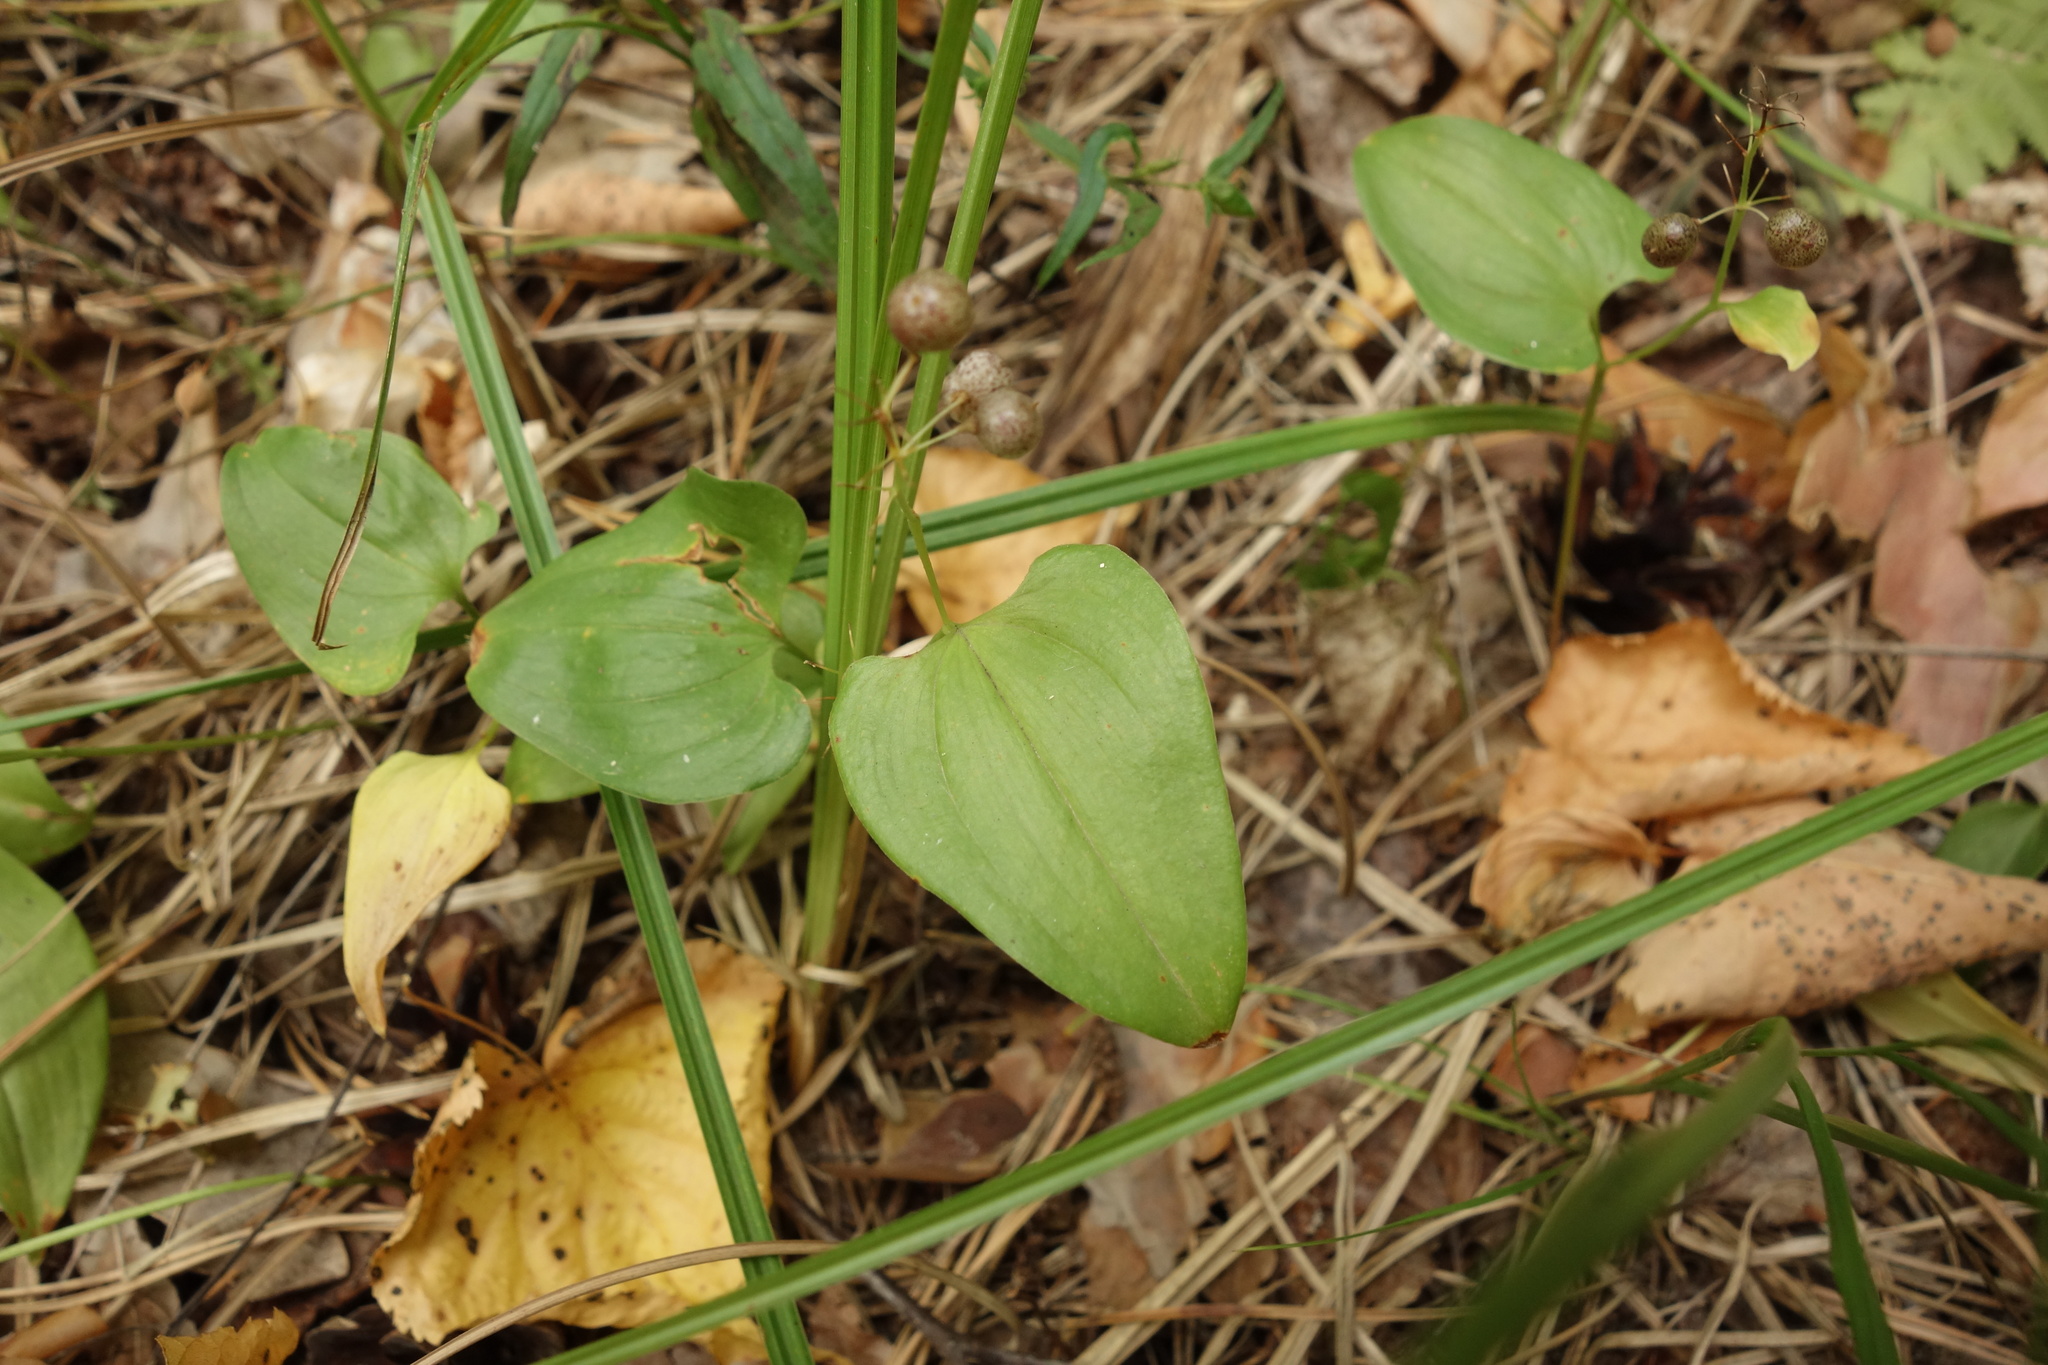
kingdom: Plantae
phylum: Tracheophyta
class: Liliopsida
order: Asparagales
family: Asparagaceae
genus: Maianthemum
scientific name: Maianthemum bifolium
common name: May lily
